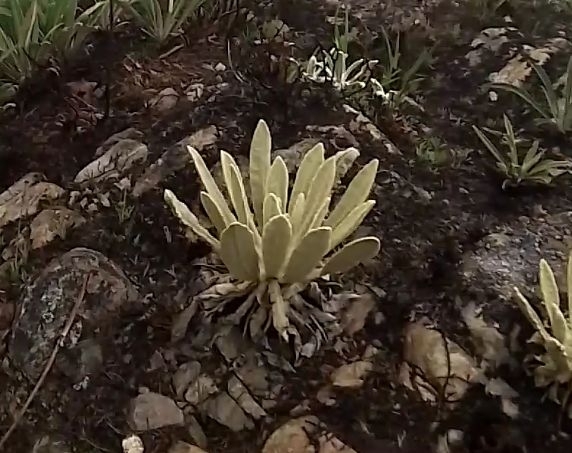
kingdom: Plantae
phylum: Tracheophyta
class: Magnoliopsida
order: Asterales
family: Asteraceae
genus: Espeletia
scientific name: Espeletia aristeguietana
